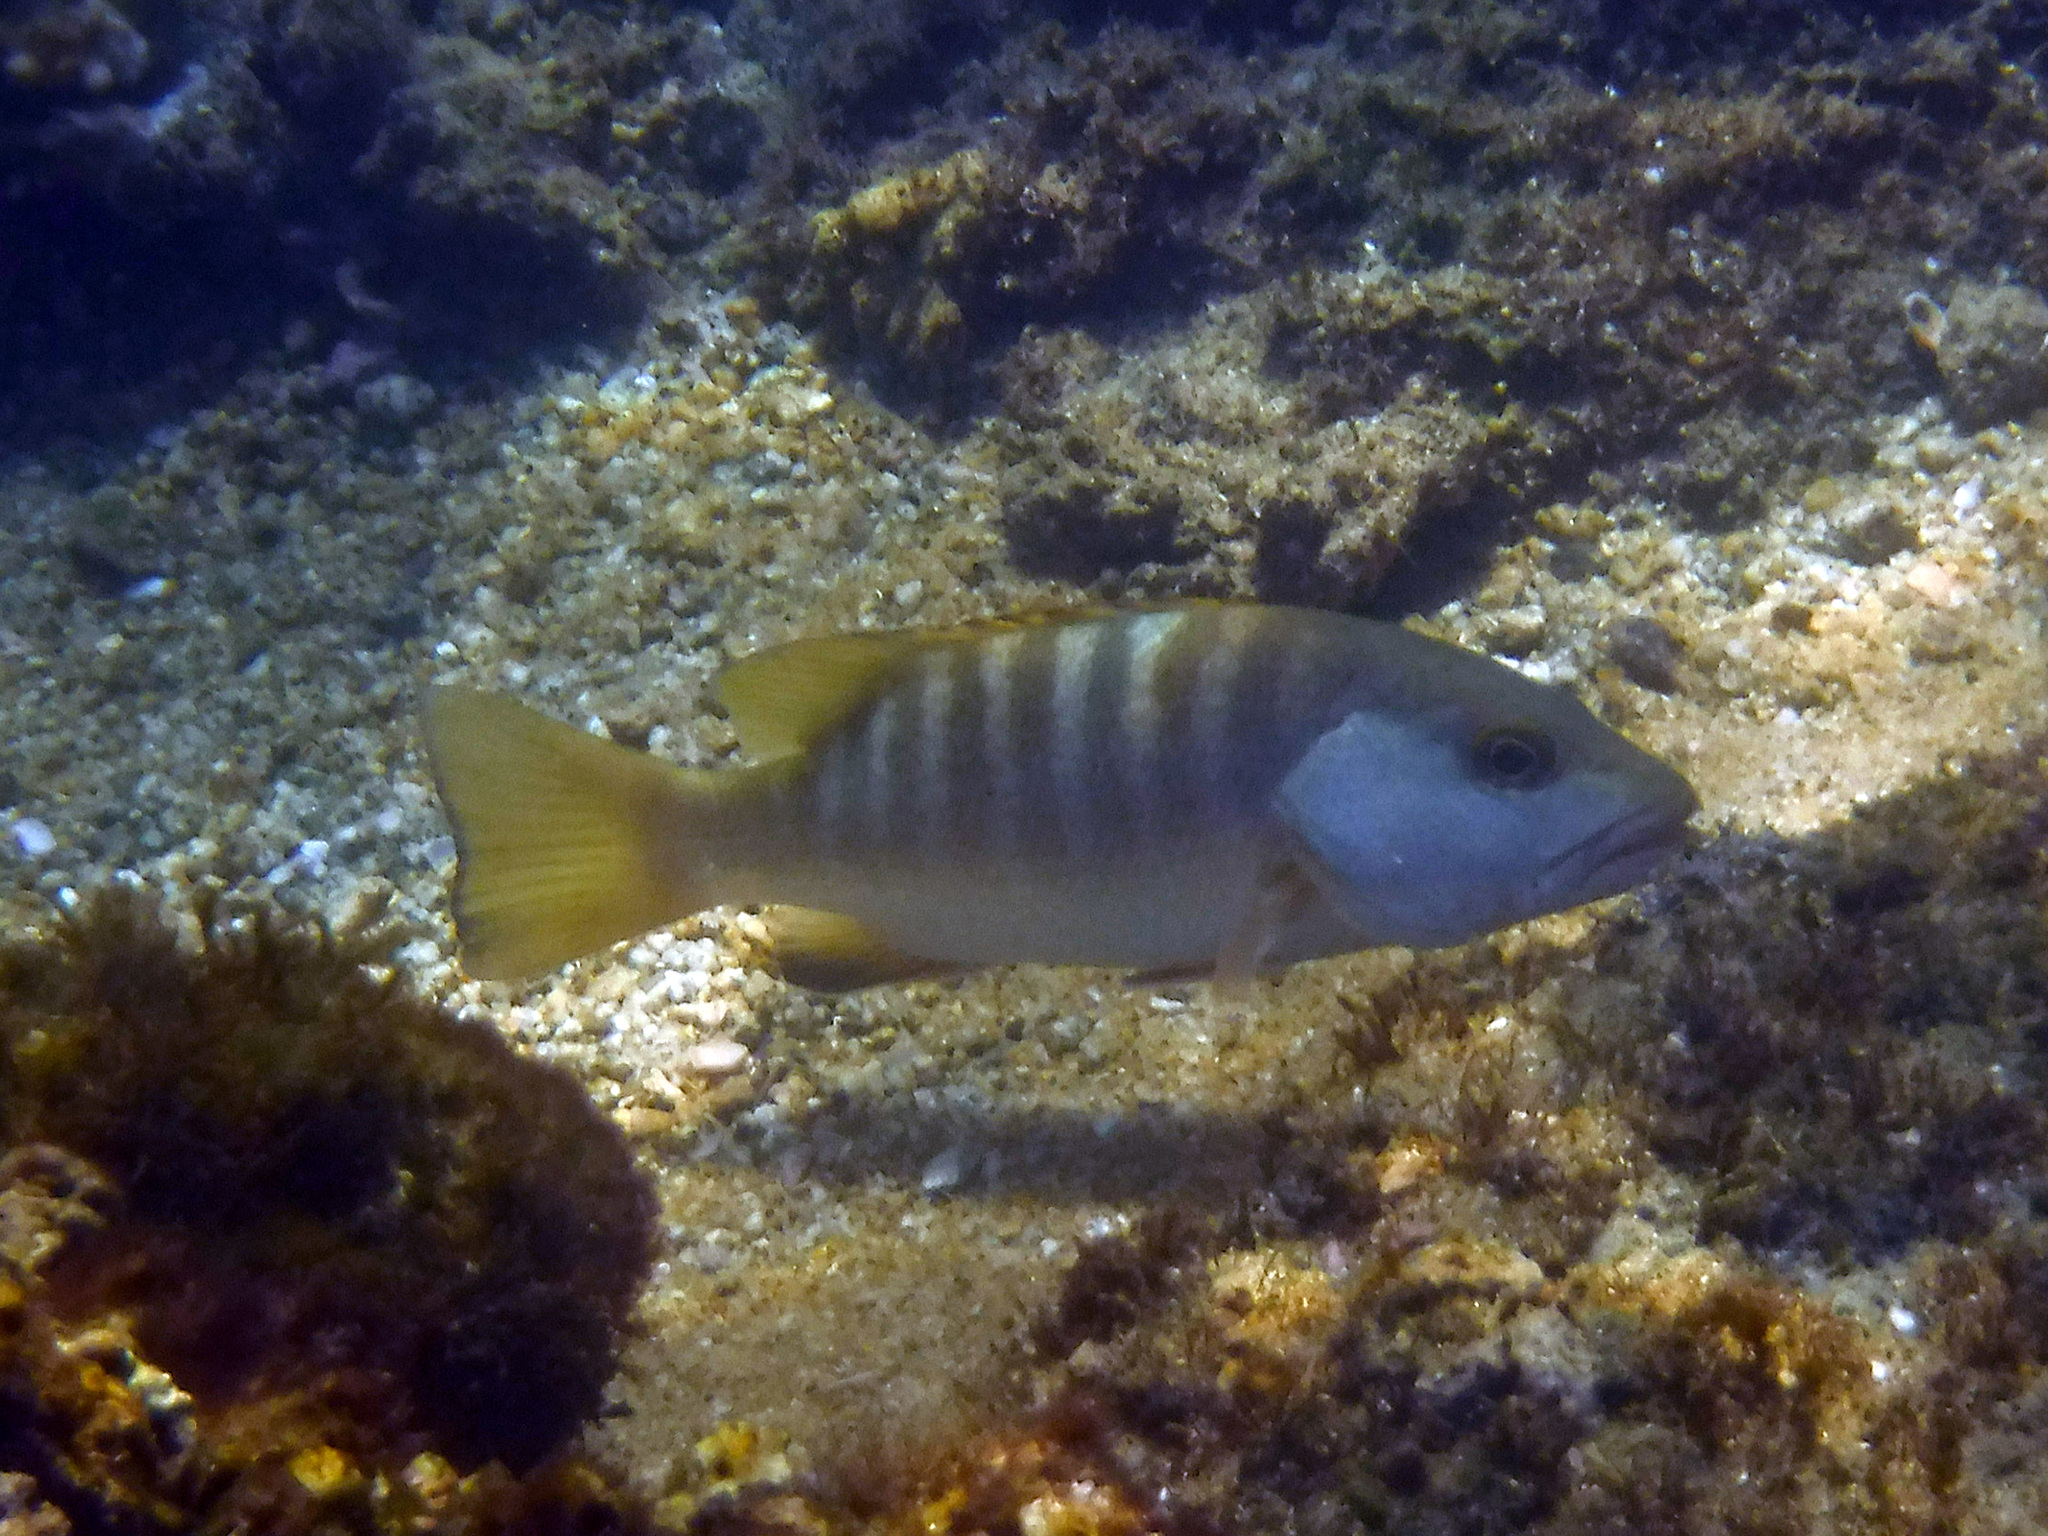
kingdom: Animalia
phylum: Chordata
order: Perciformes
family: Lutjanidae
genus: Lutjanus
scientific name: Lutjanus novemfasciatus
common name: Pacific dog snapper
